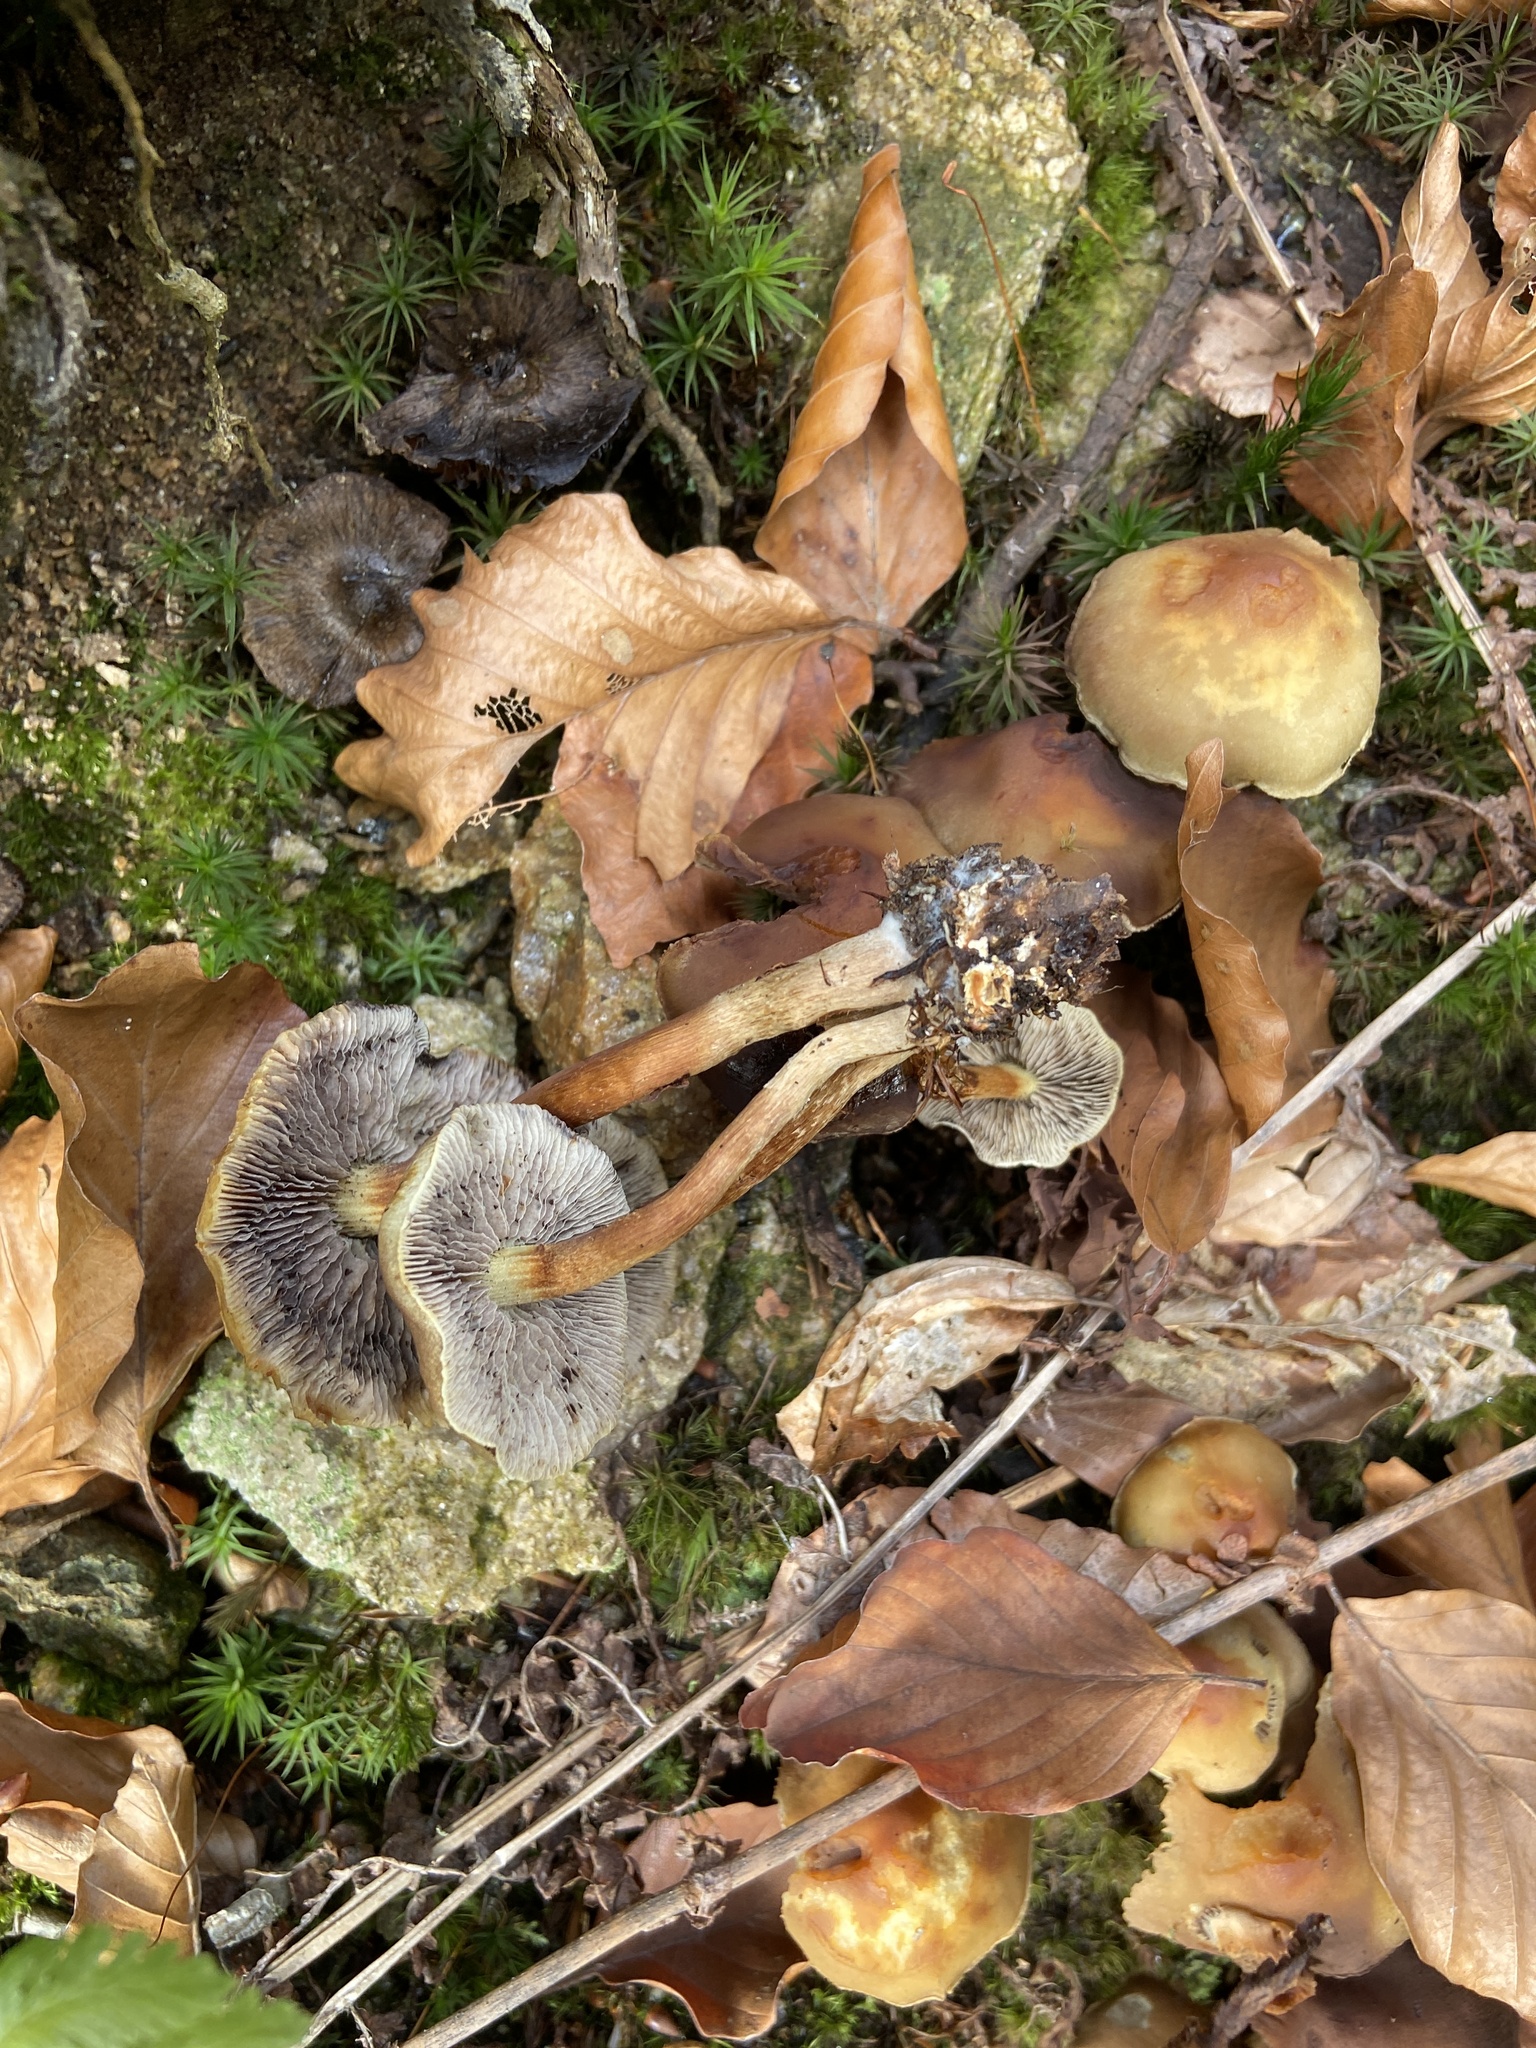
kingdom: Fungi
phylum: Basidiomycota
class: Agaricomycetes
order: Agaricales
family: Strophariaceae
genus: Hypholoma
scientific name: Hypholoma fasciculare
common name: Sulphur tuft
